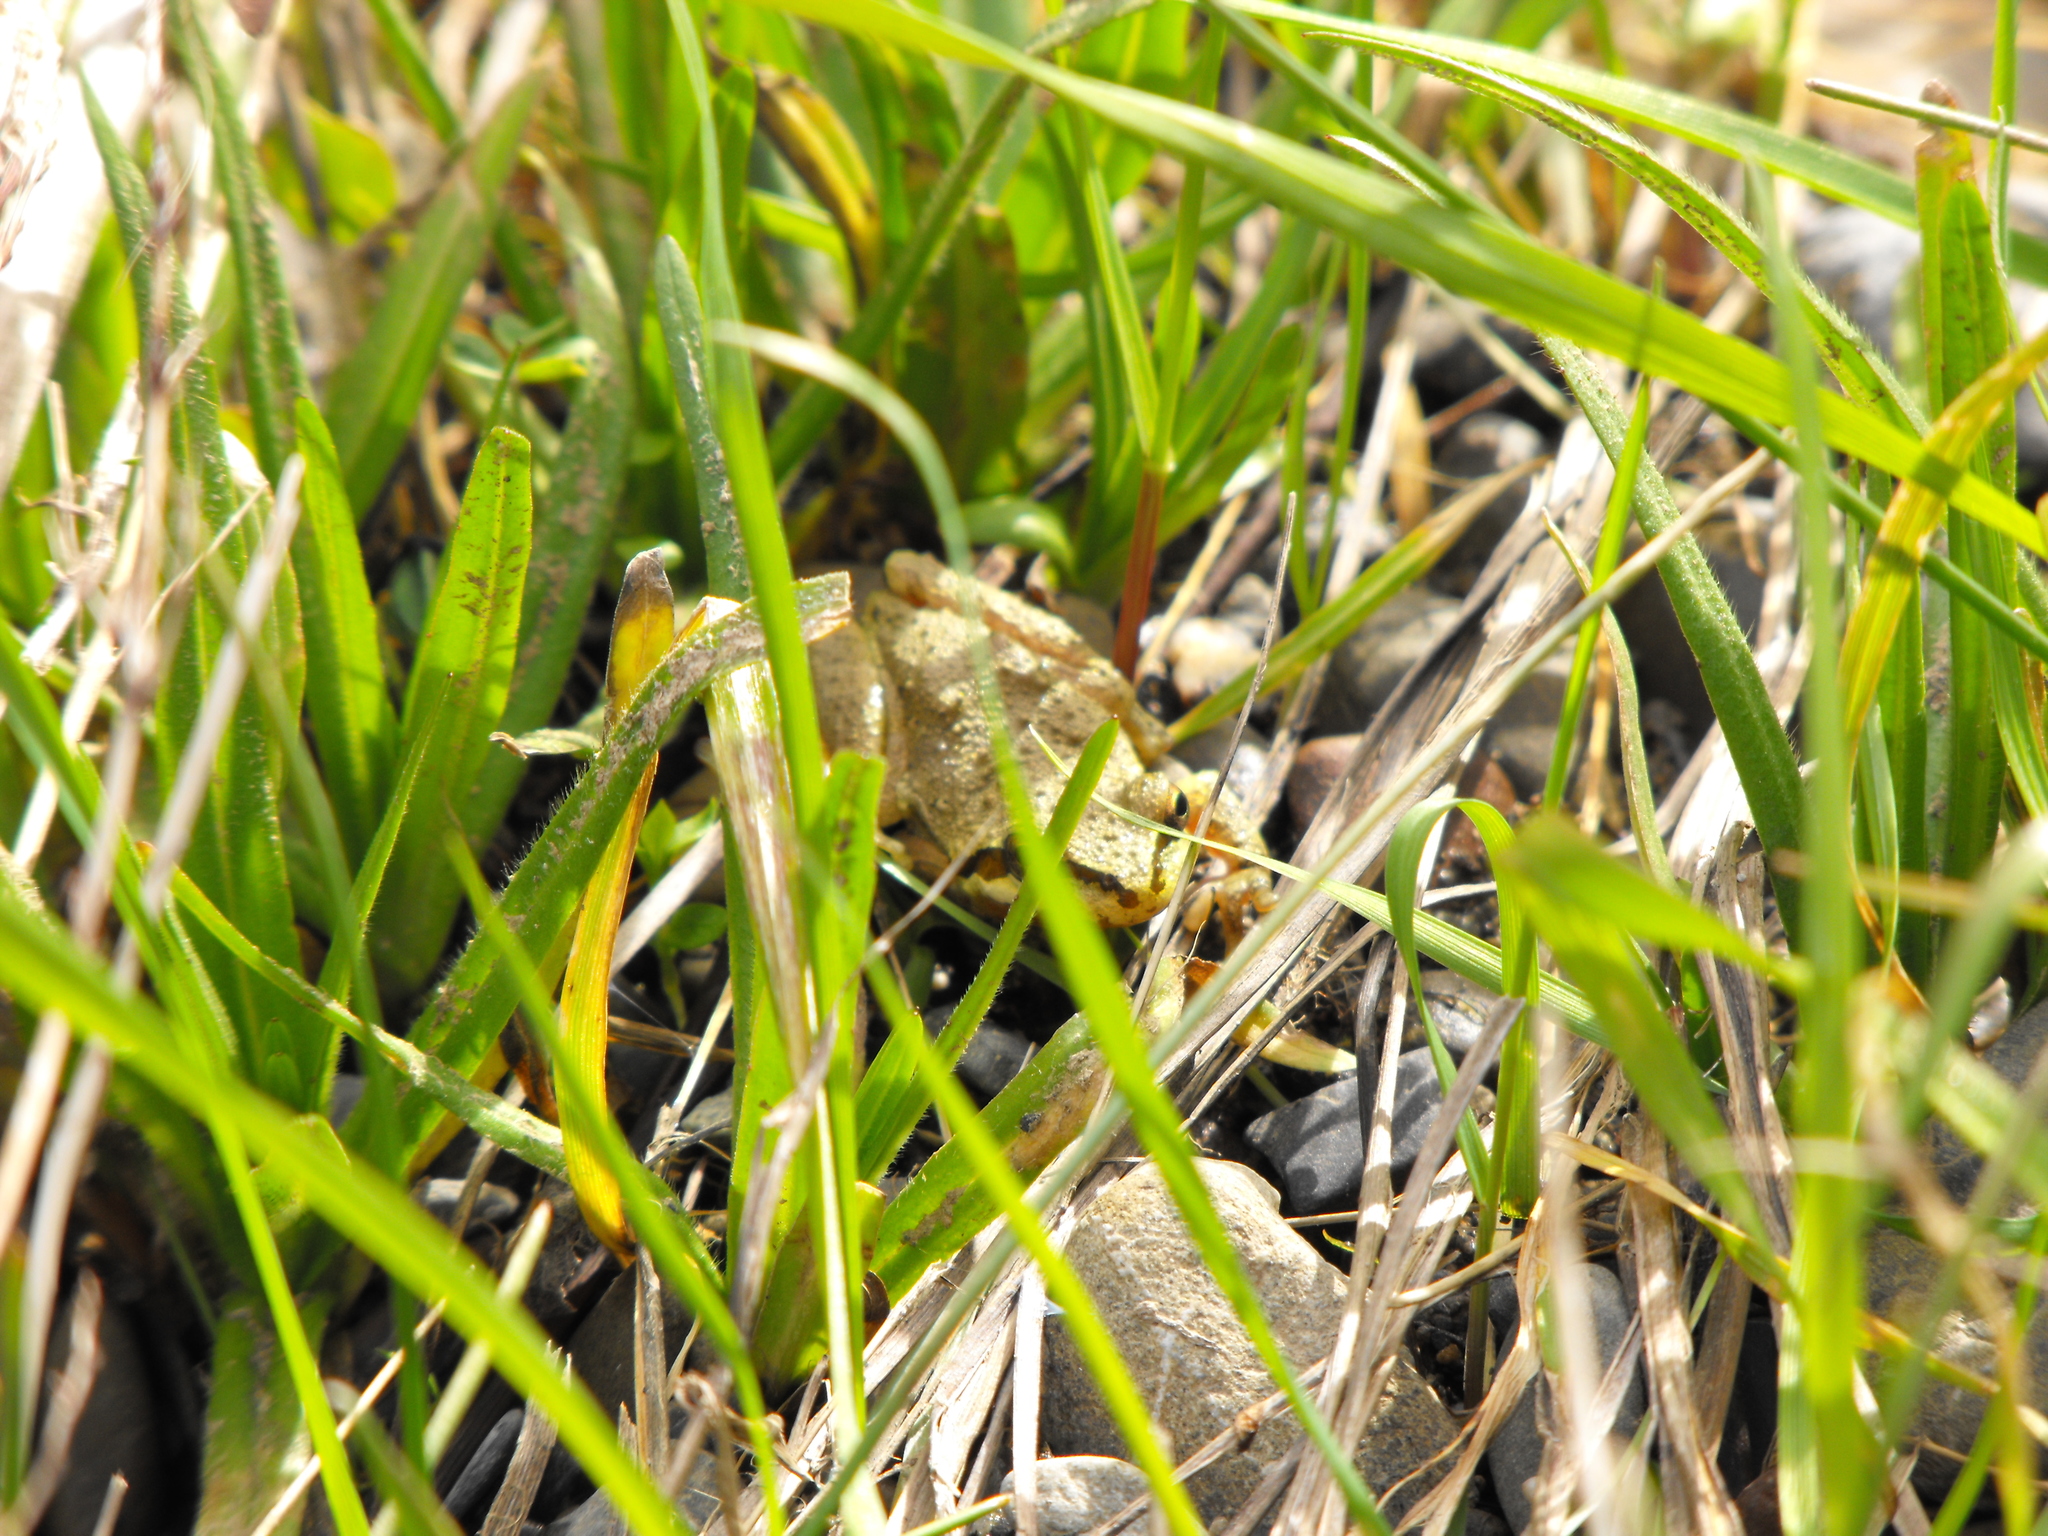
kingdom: Animalia
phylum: Chordata
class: Amphibia
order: Anura
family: Hylidae
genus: Pseudacris
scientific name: Pseudacris regilla
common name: Pacific chorus frog
